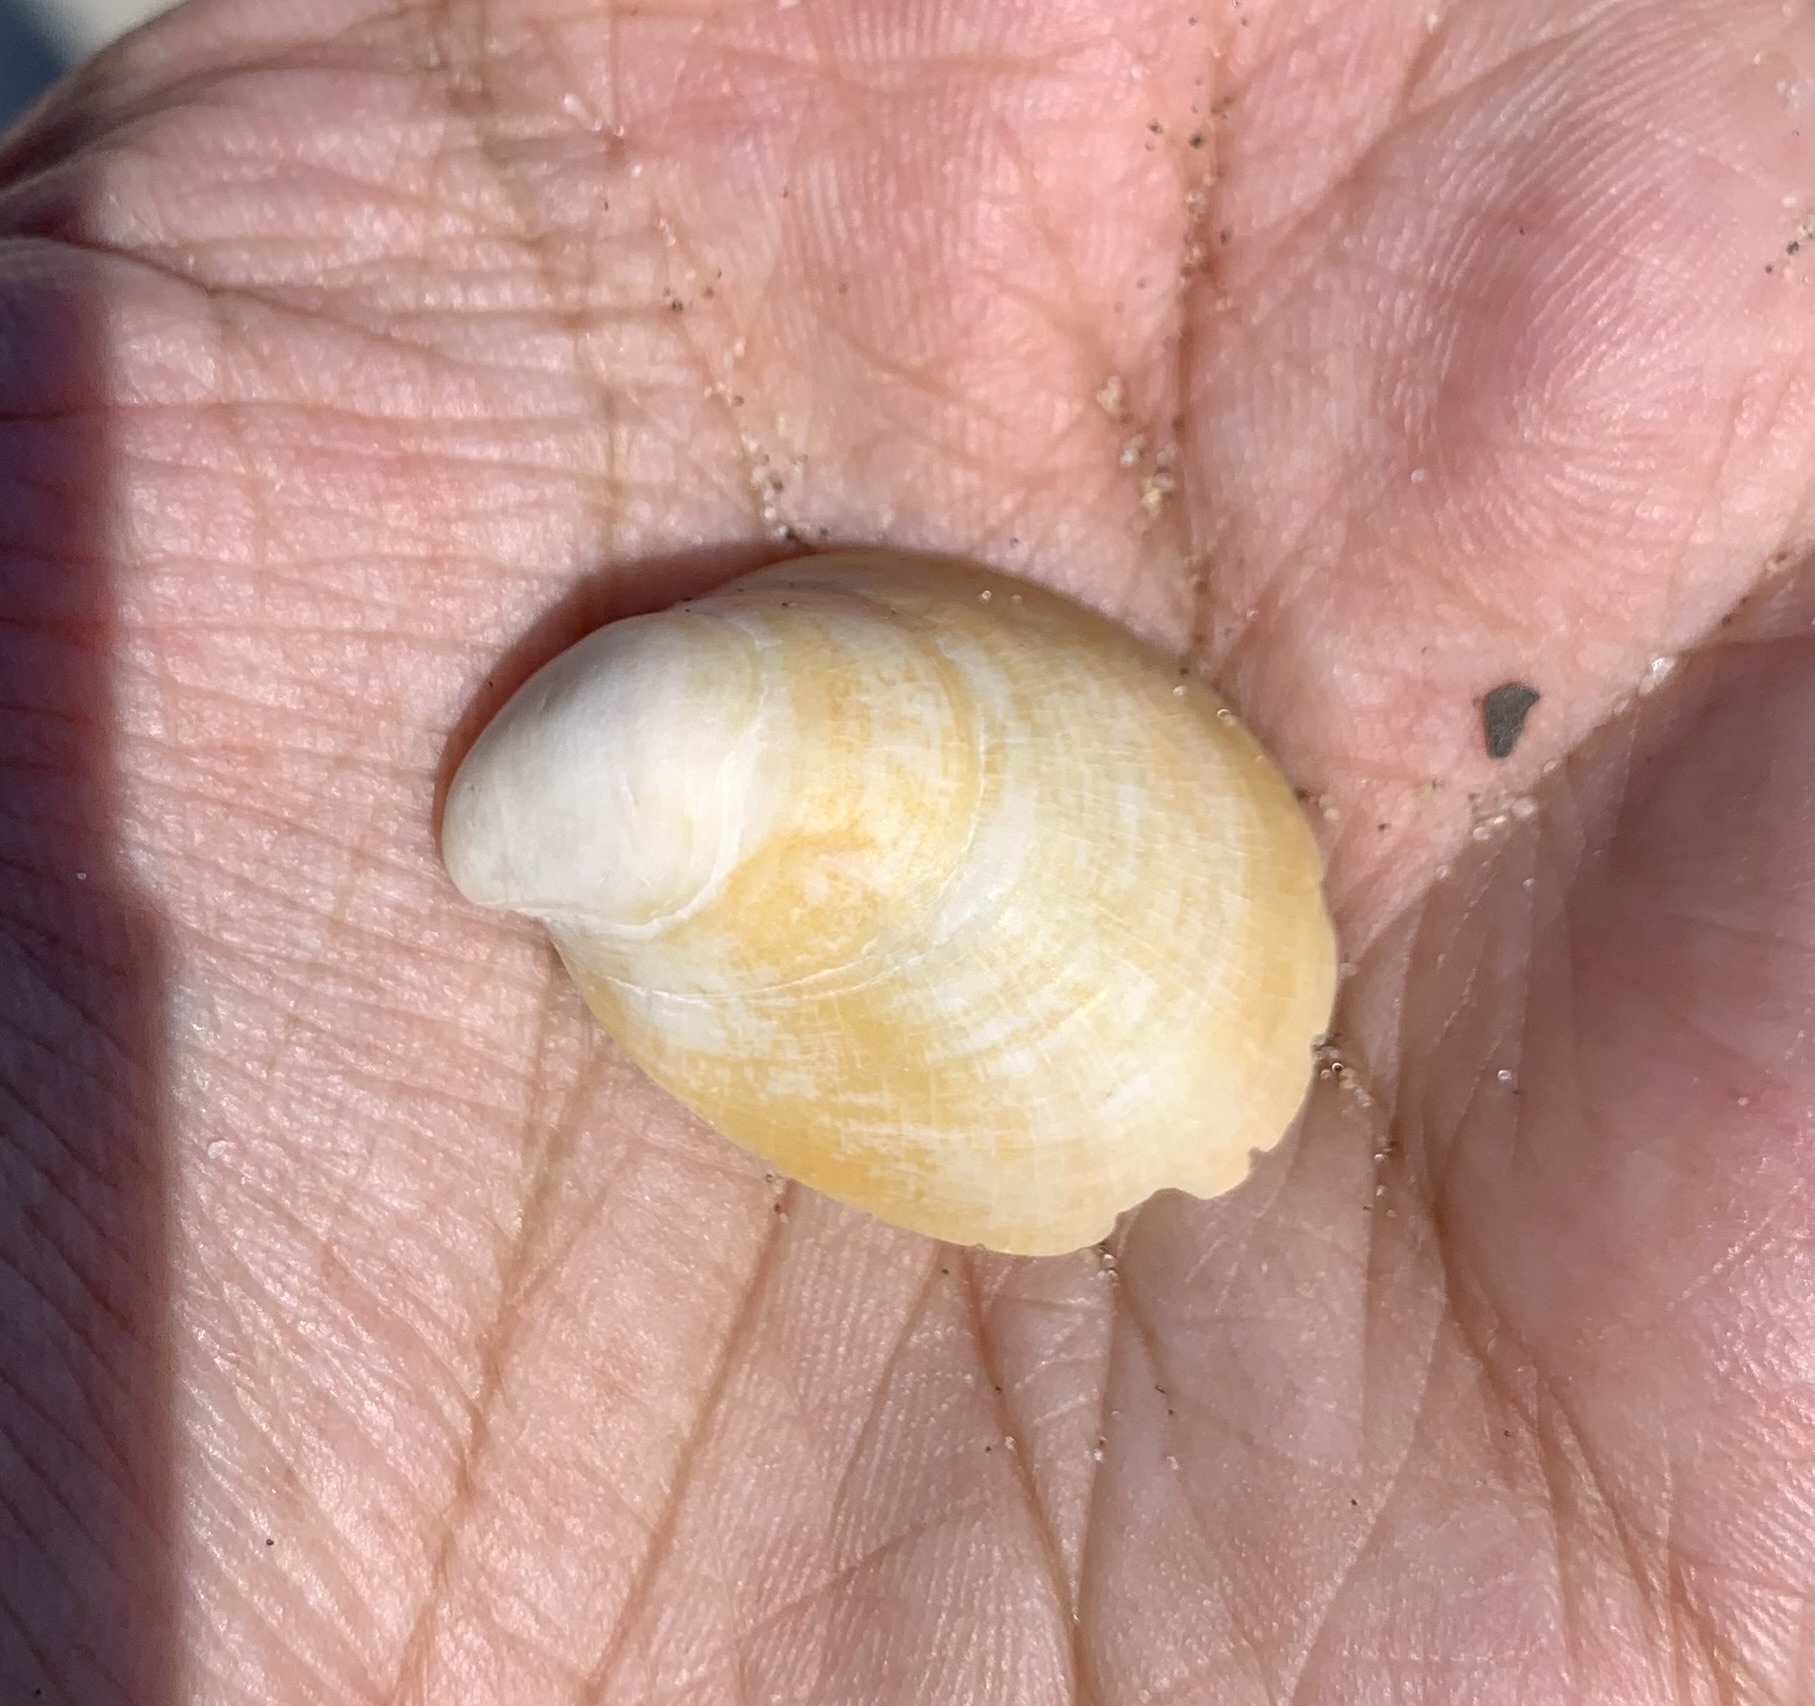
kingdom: Animalia
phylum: Mollusca
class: Gastropoda
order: Littorinimorpha
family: Calyptraeidae
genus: Crepidula
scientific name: Crepidula fornicata
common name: Slipper limpet
